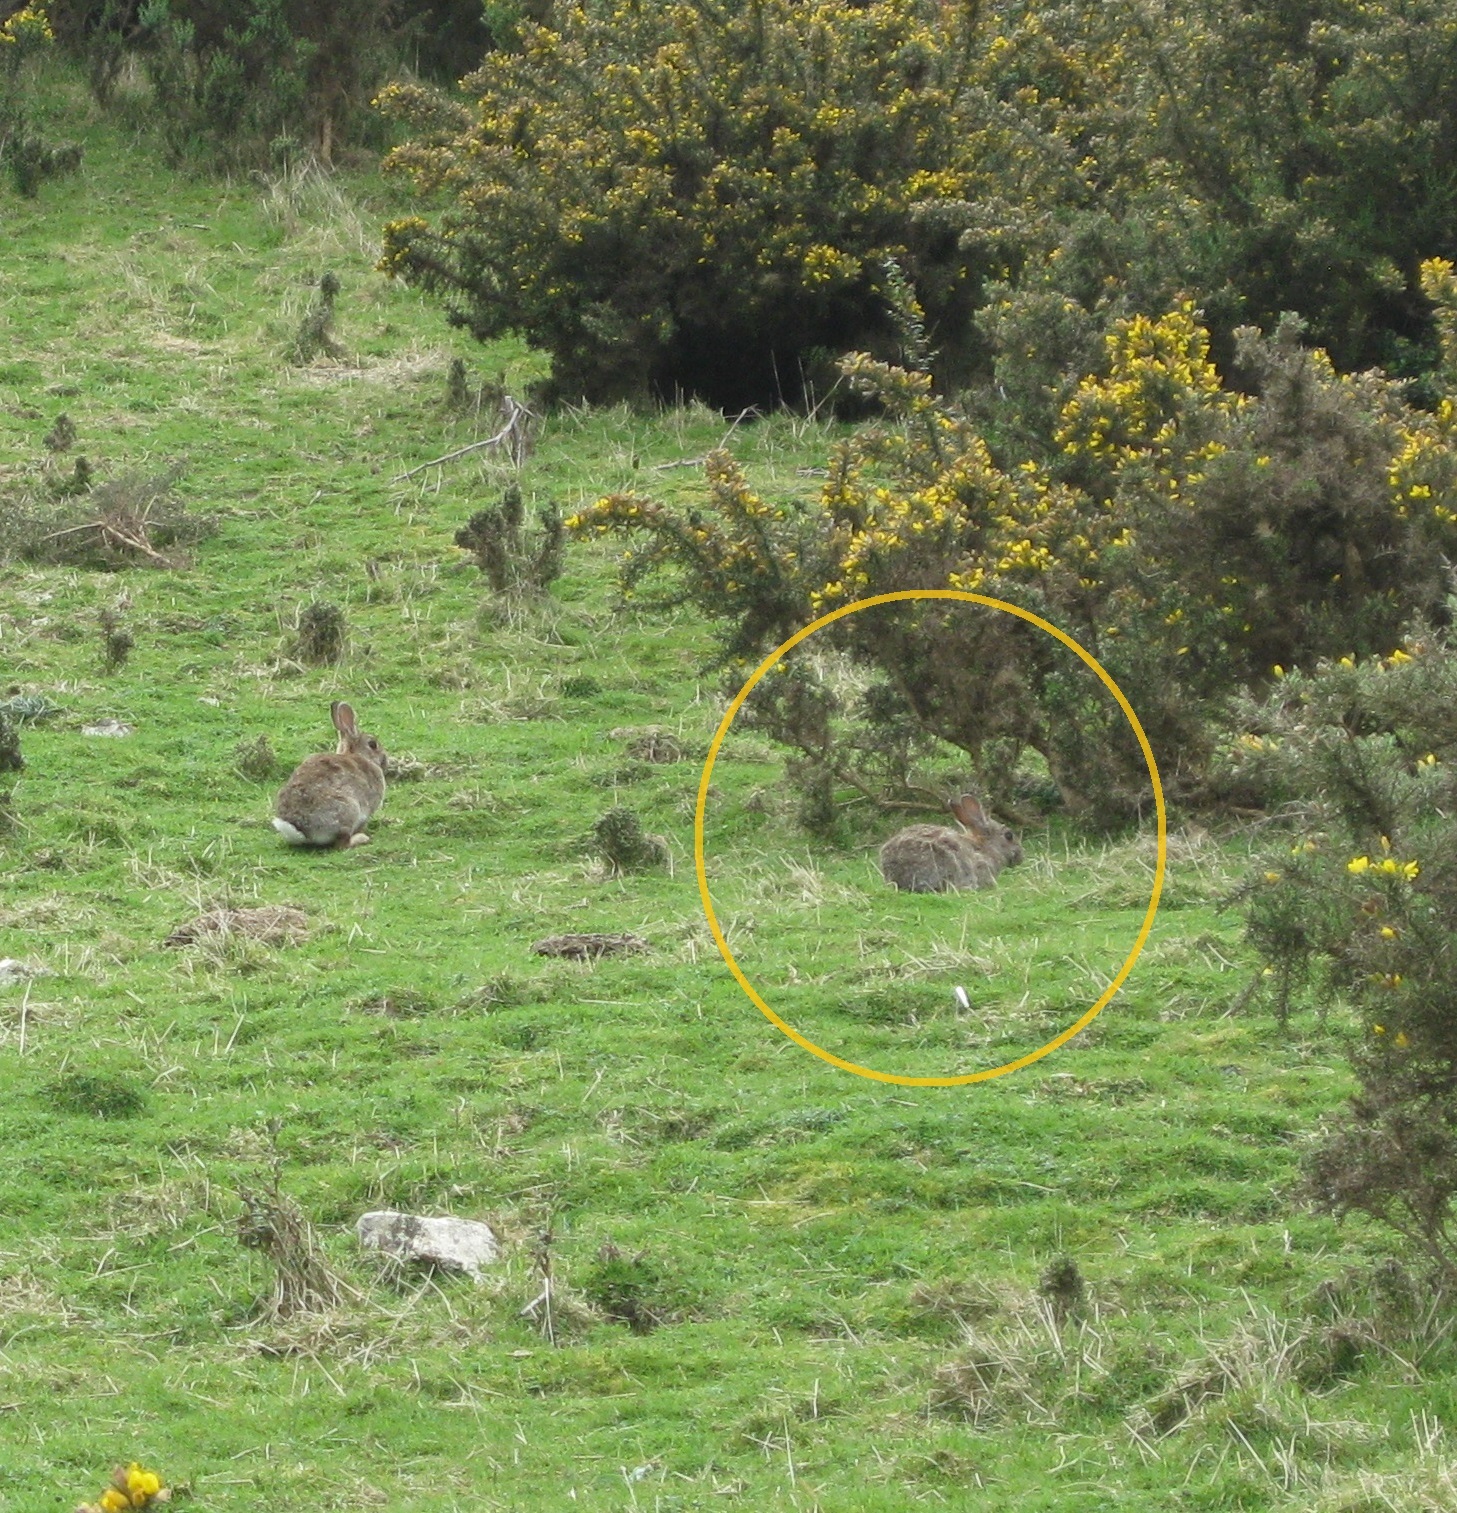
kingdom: Animalia
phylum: Chordata
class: Mammalia
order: Lagomorpha
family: Leporidae
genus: Oryctolagus
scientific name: Oryctolagus cuniculus
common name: European rabbit
